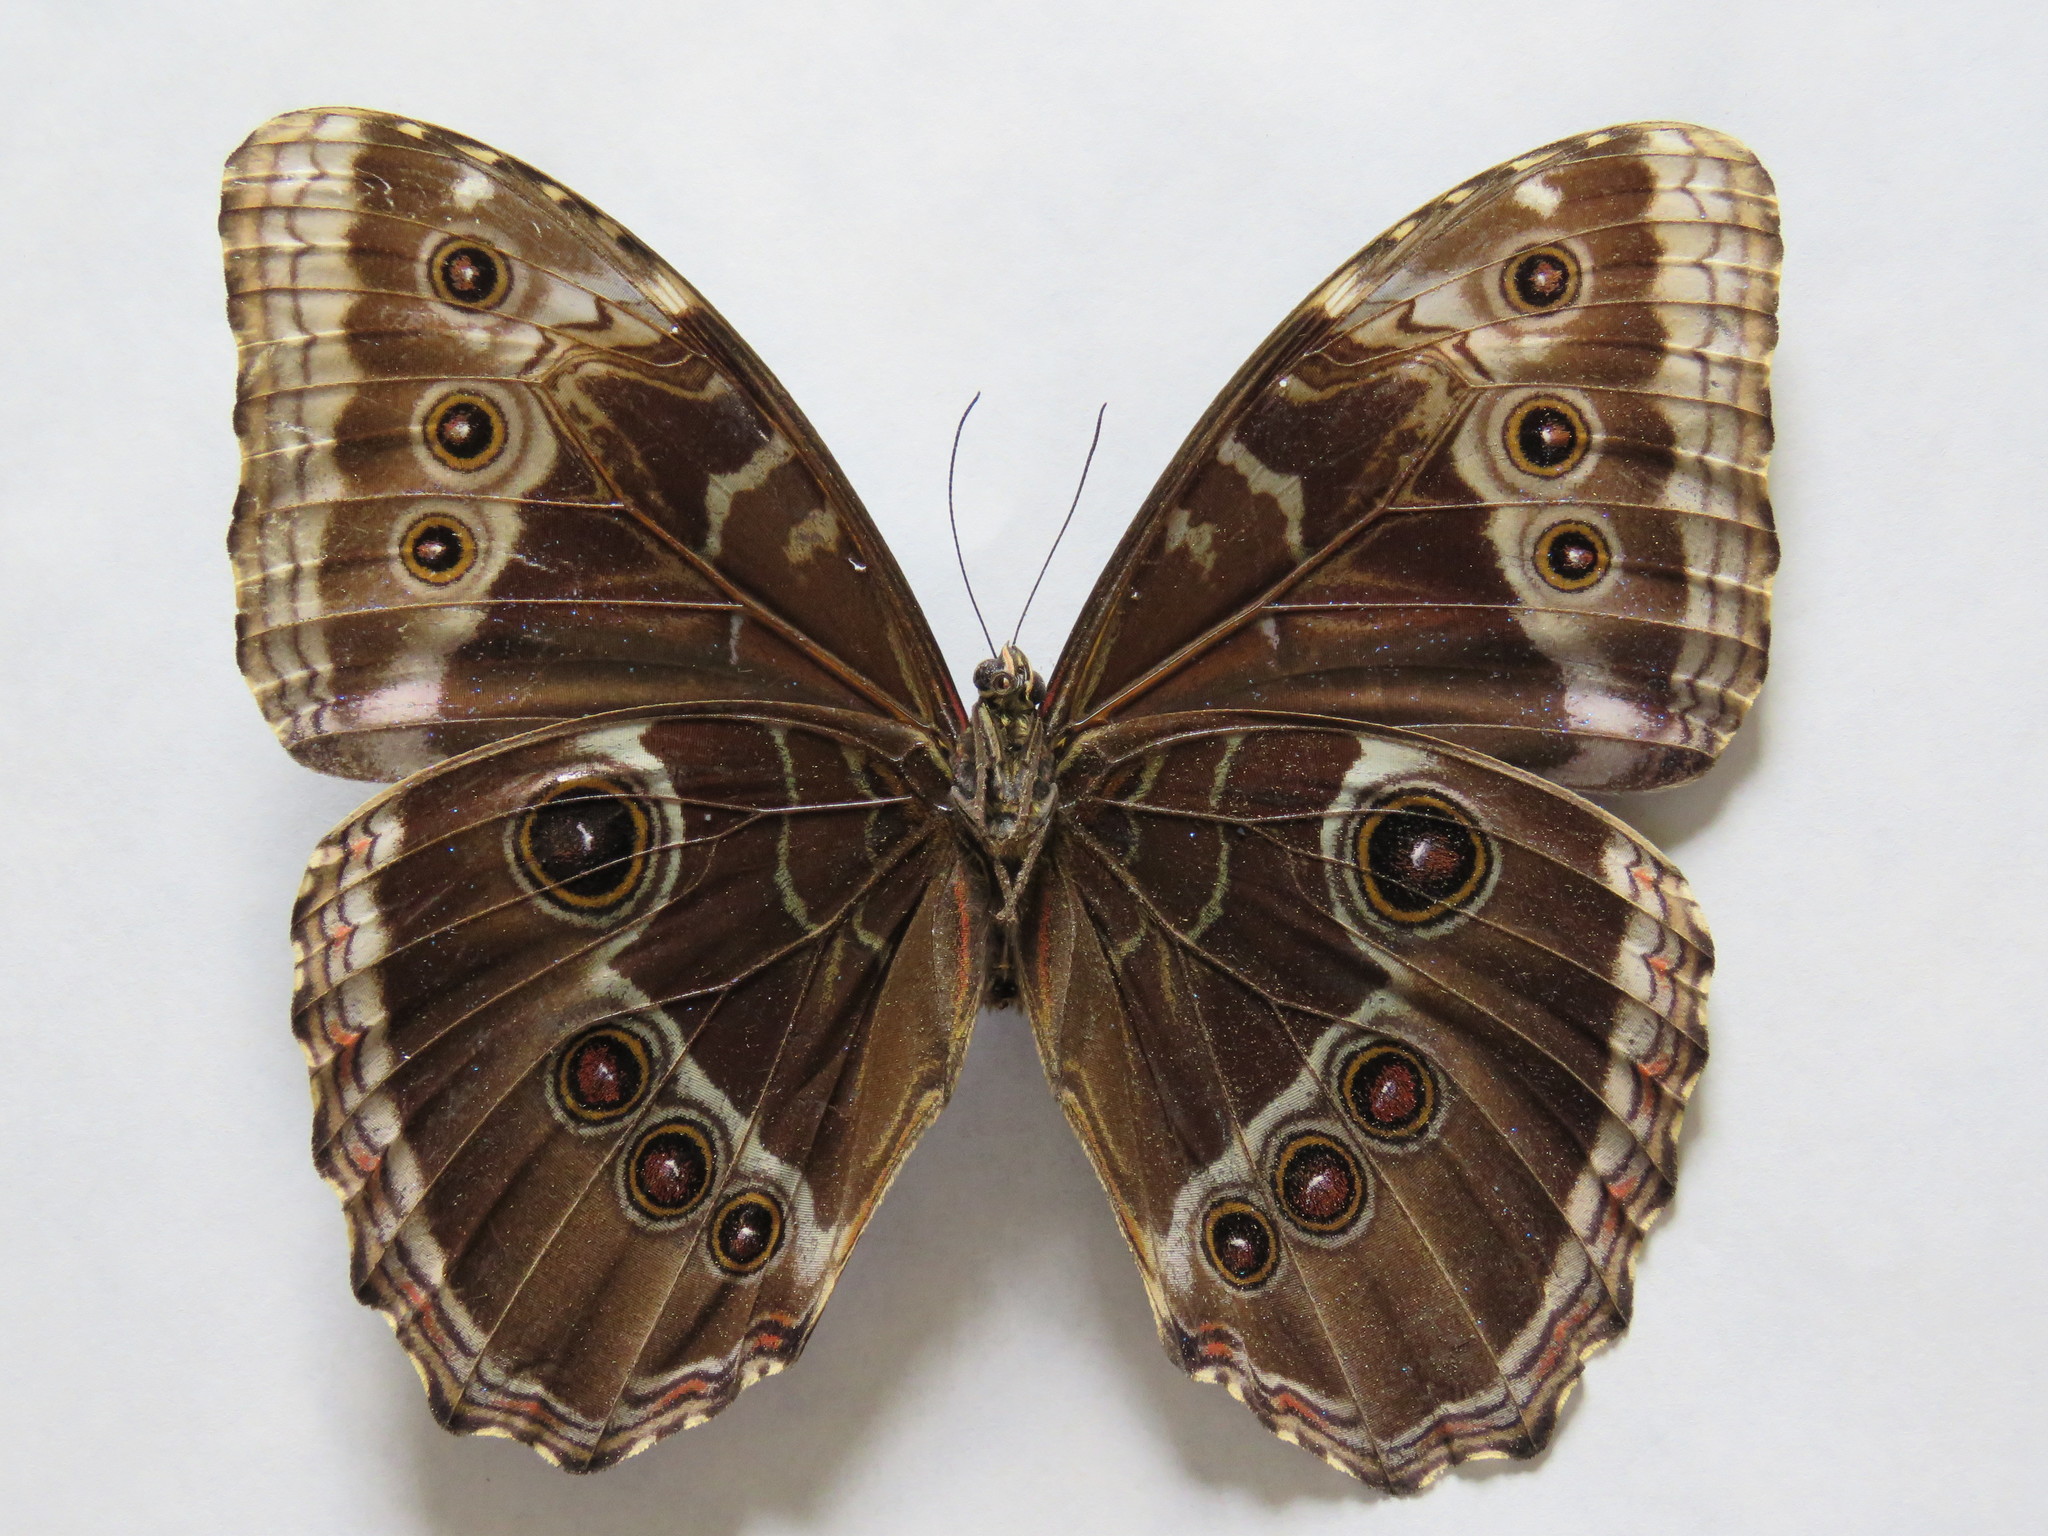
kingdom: Animalia
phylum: Arthropoda
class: Insecta
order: Lepidoptera
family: Nymphalidae
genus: Morpho
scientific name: Morpho helenor
